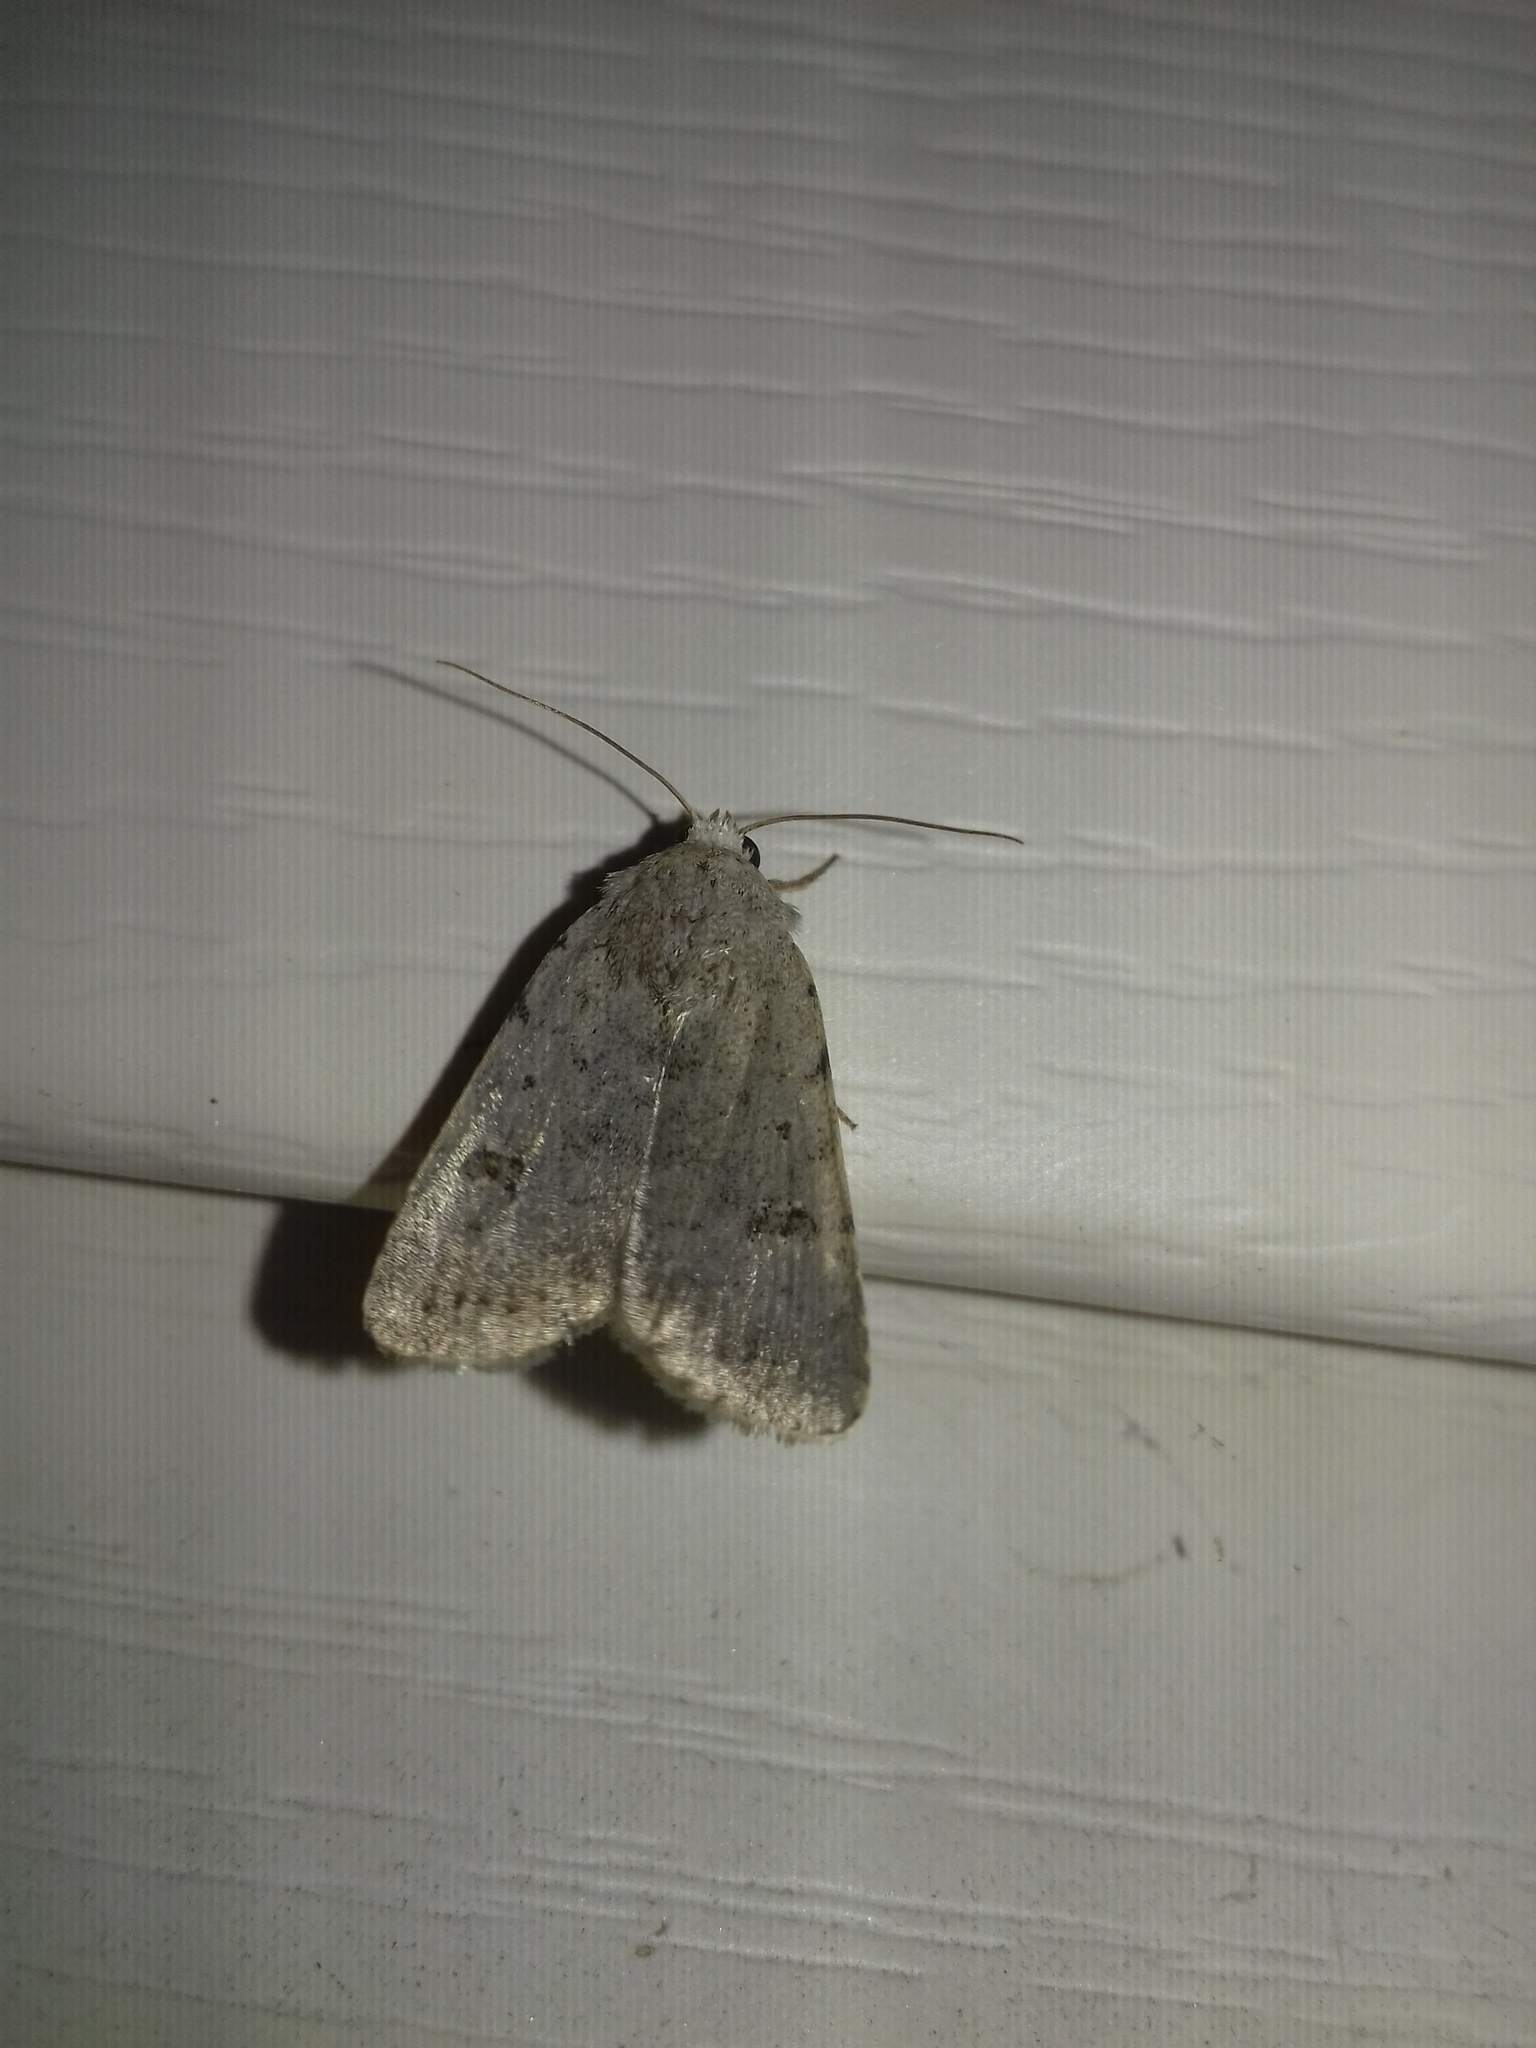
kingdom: Animalia
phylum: Arthropoda
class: Insecta
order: Lepidoptera
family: Noctuidae
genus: Caradrina
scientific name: Caradrina terrea
